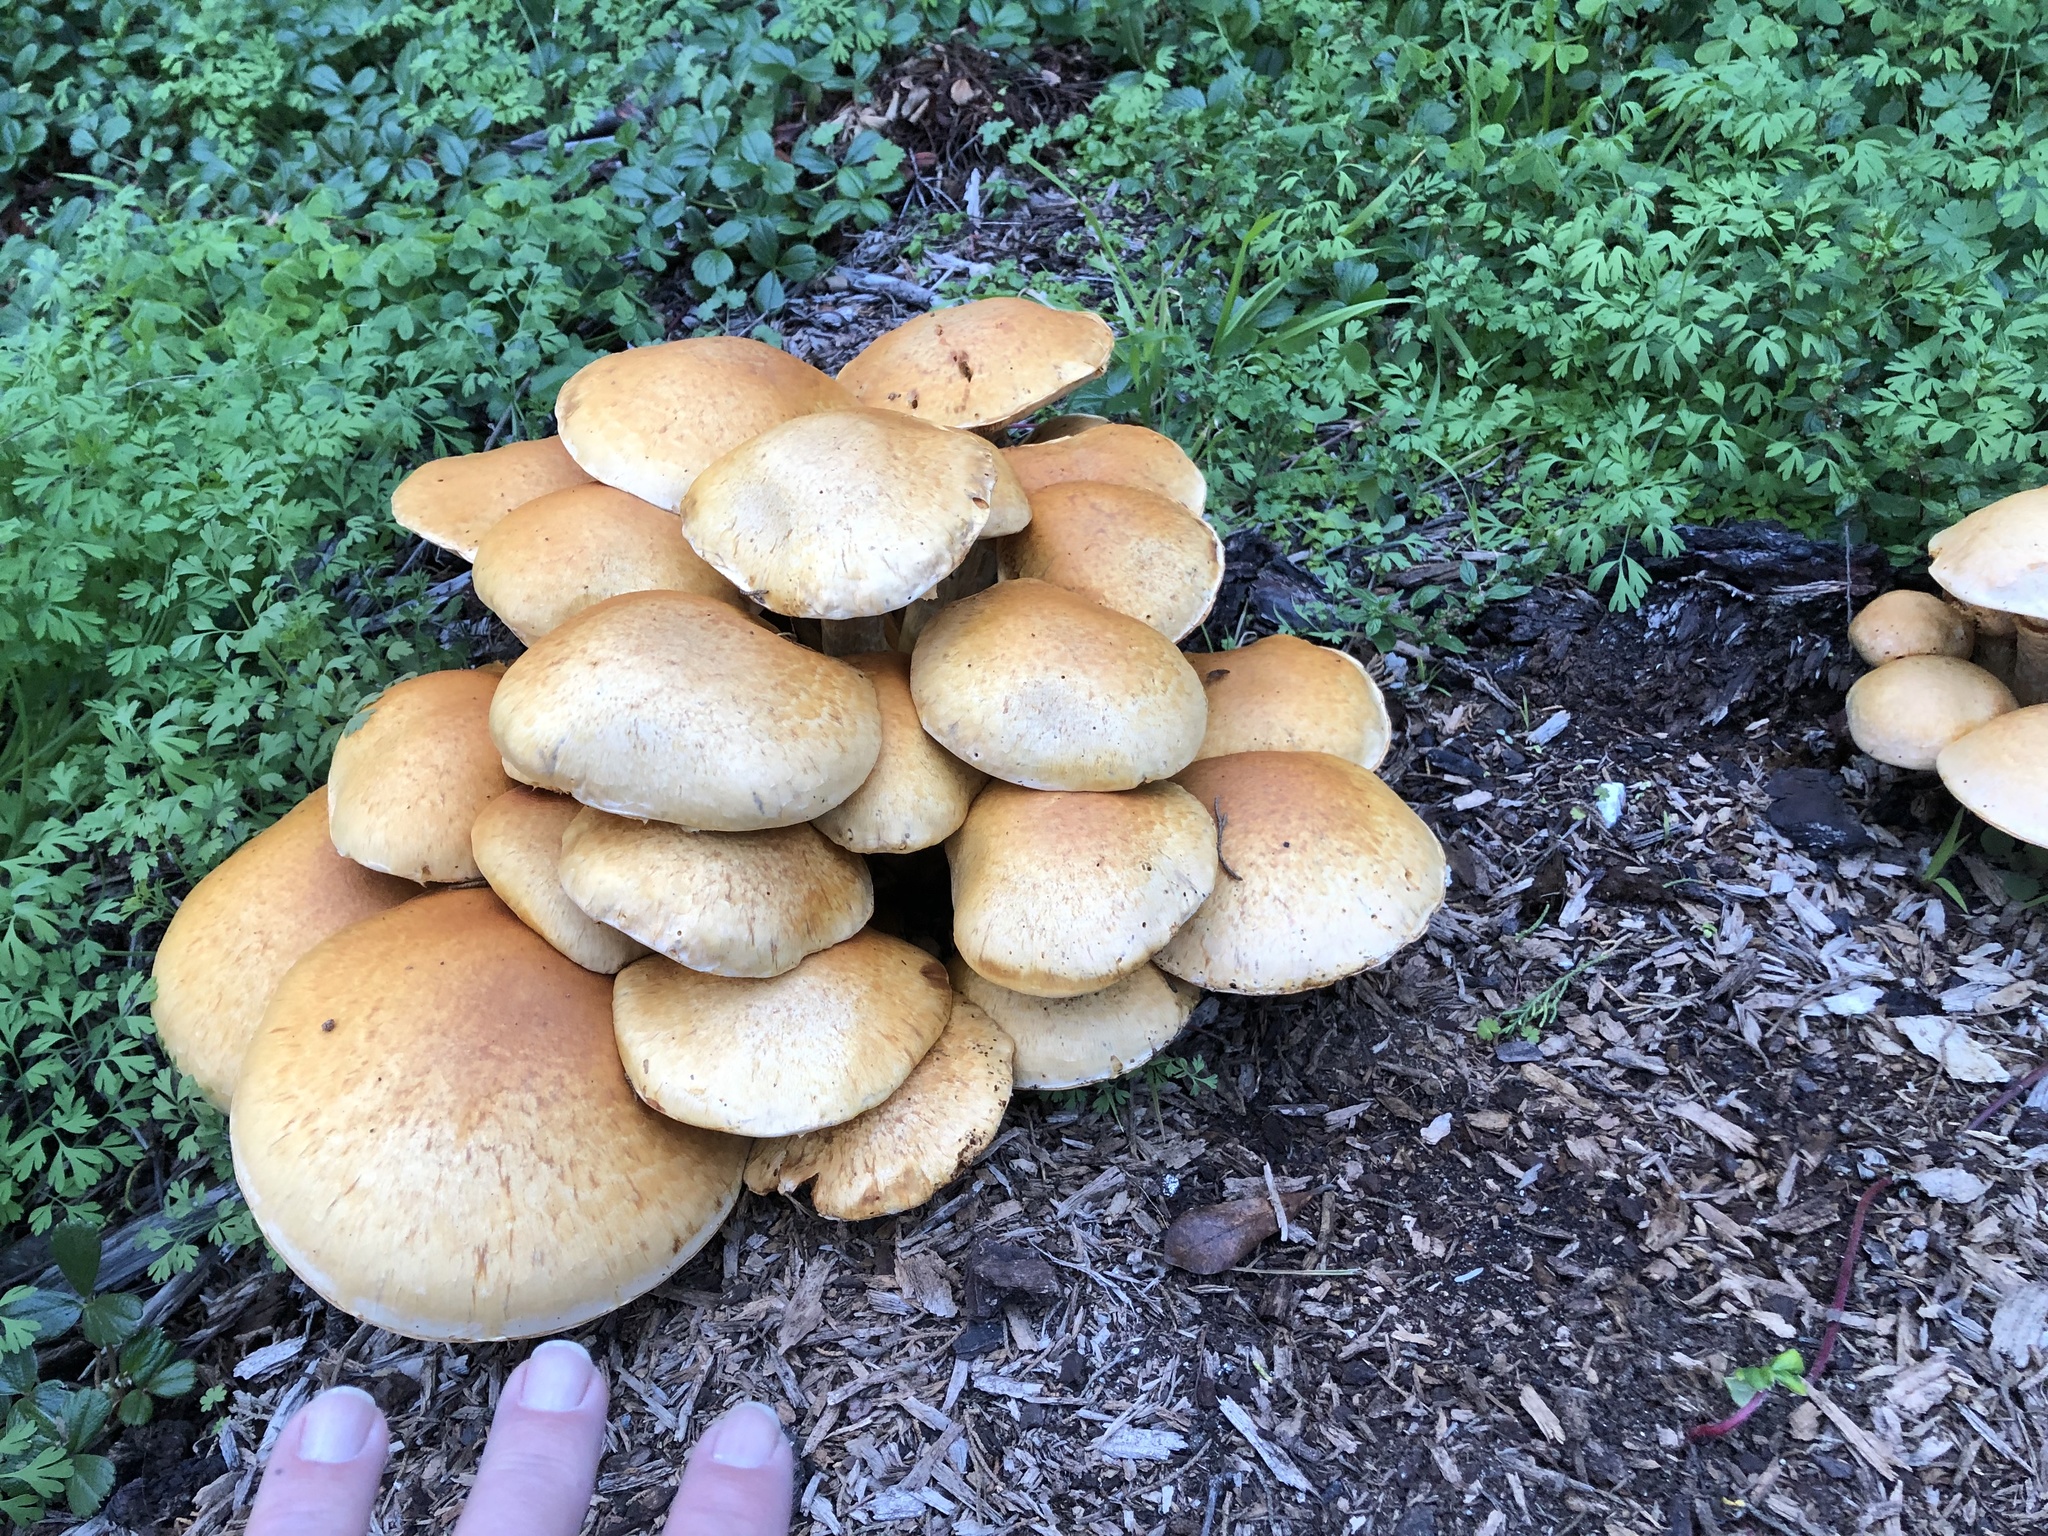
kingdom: Fungi
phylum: Basidiomycota
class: Agaricomycetes
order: Agaricales
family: Hymenogastraceae
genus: Gymnopilus
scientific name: Gymnopilus ventricosus
